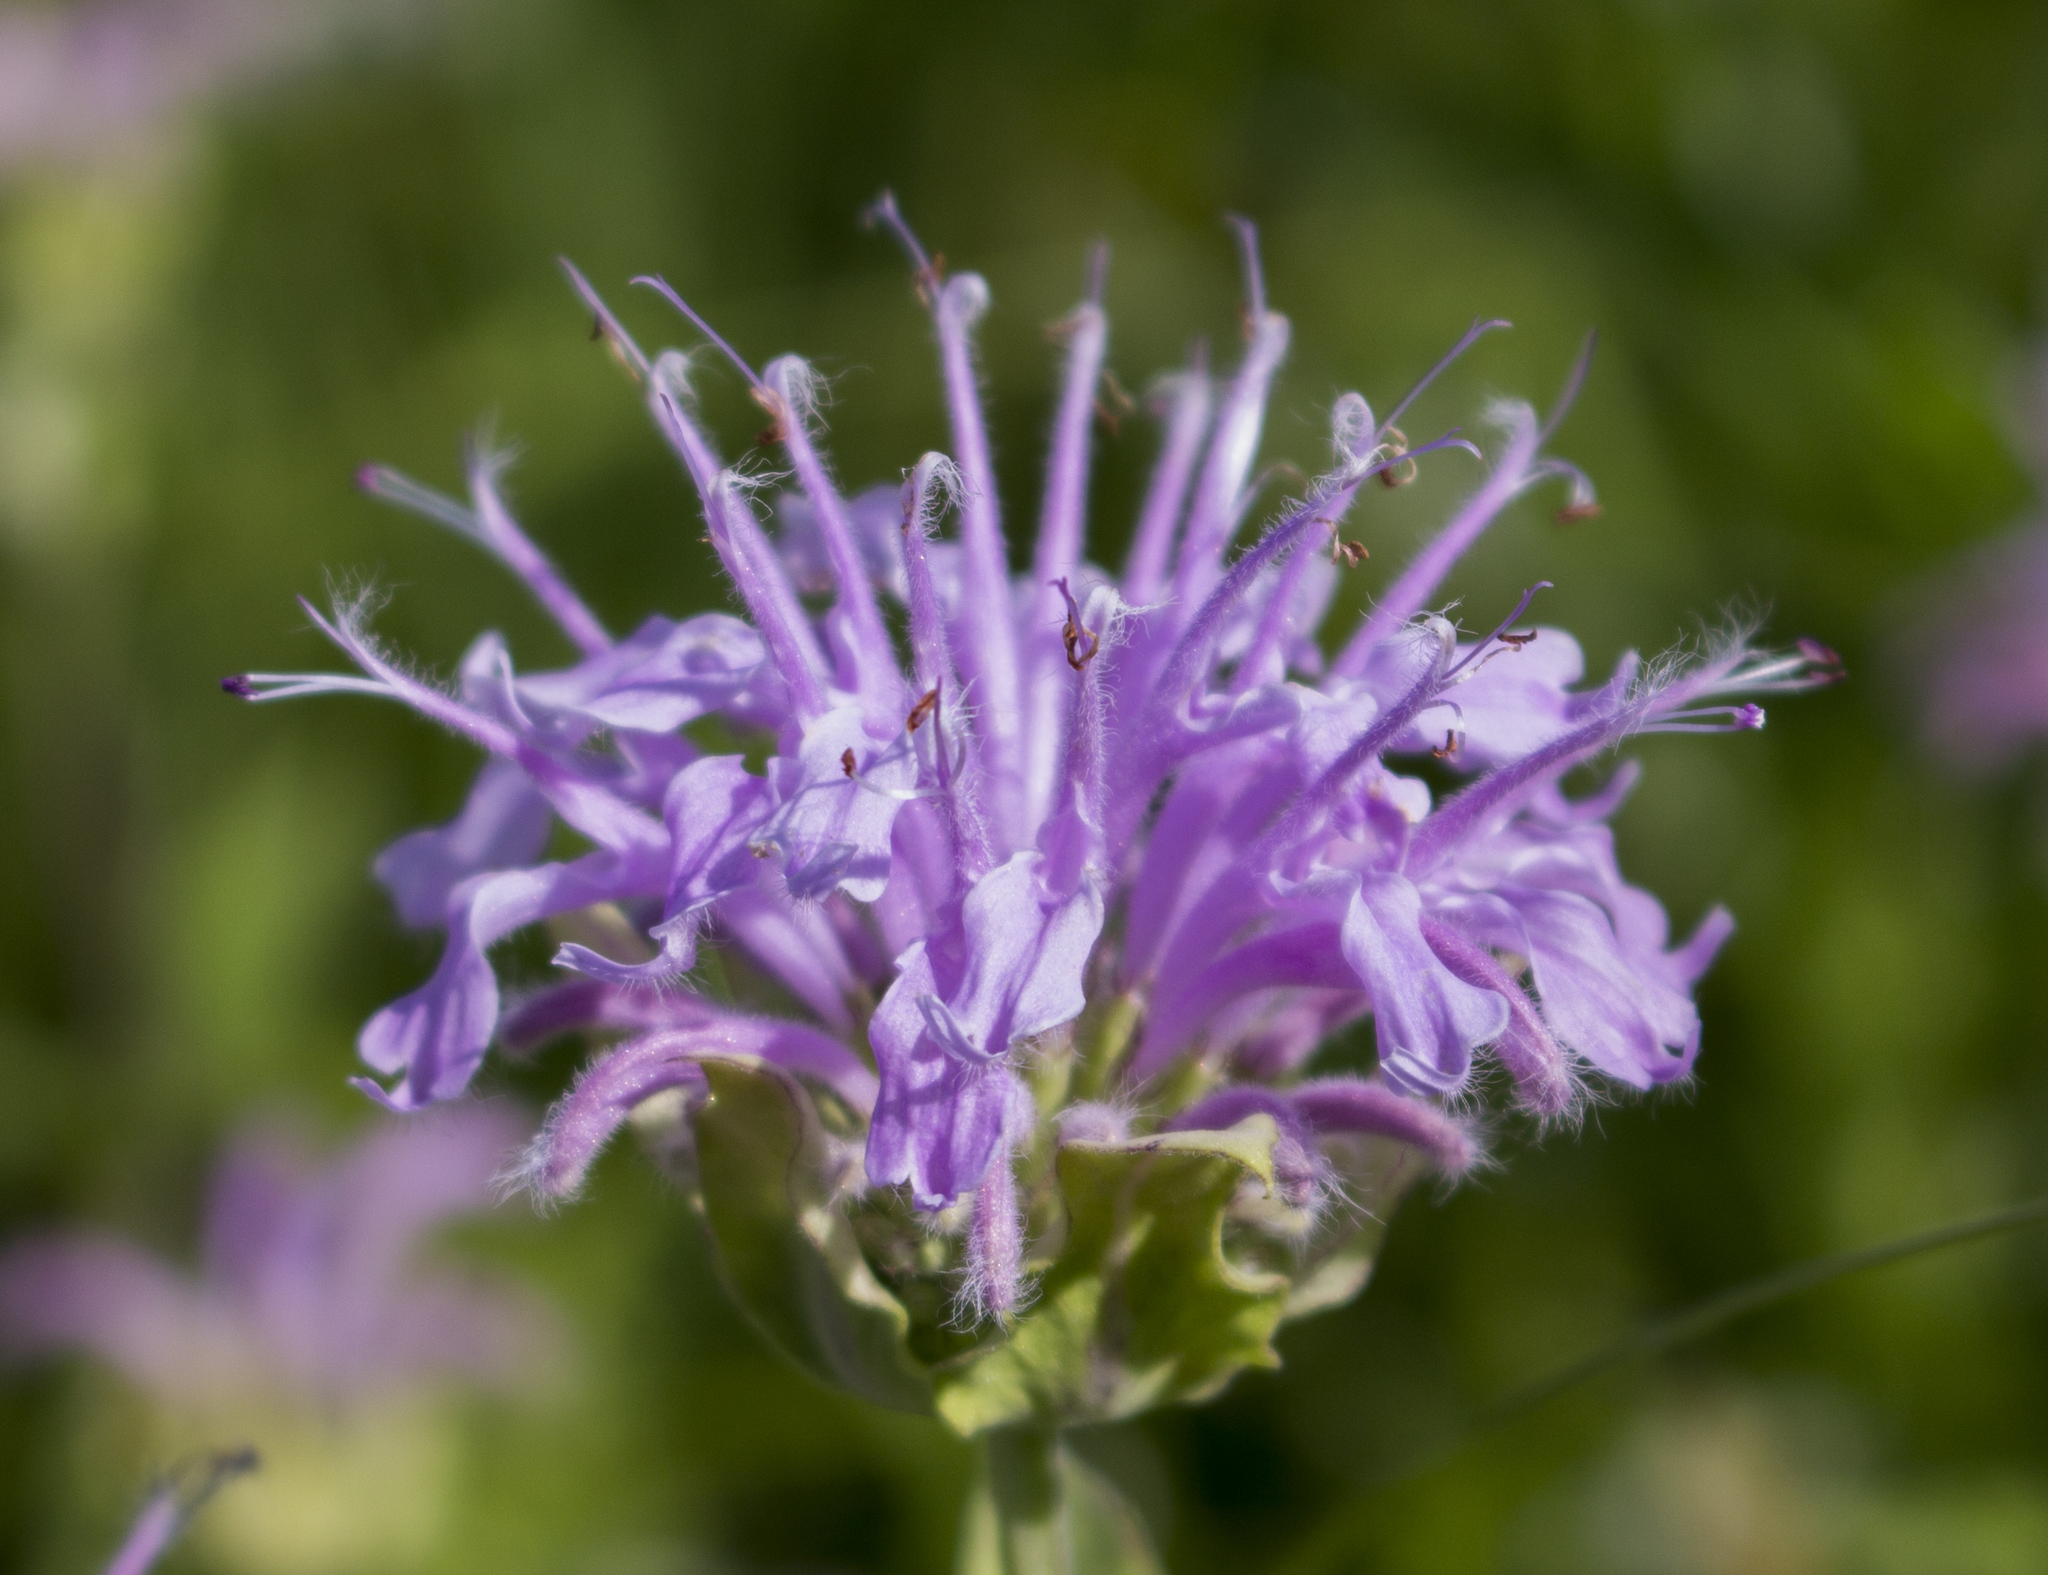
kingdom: Plantae
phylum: Tracheophyta
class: Magnoliopsida
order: Lamiales
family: Lamiaceae
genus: Monarda
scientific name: Monarda fistulosa
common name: Purple beebalm
